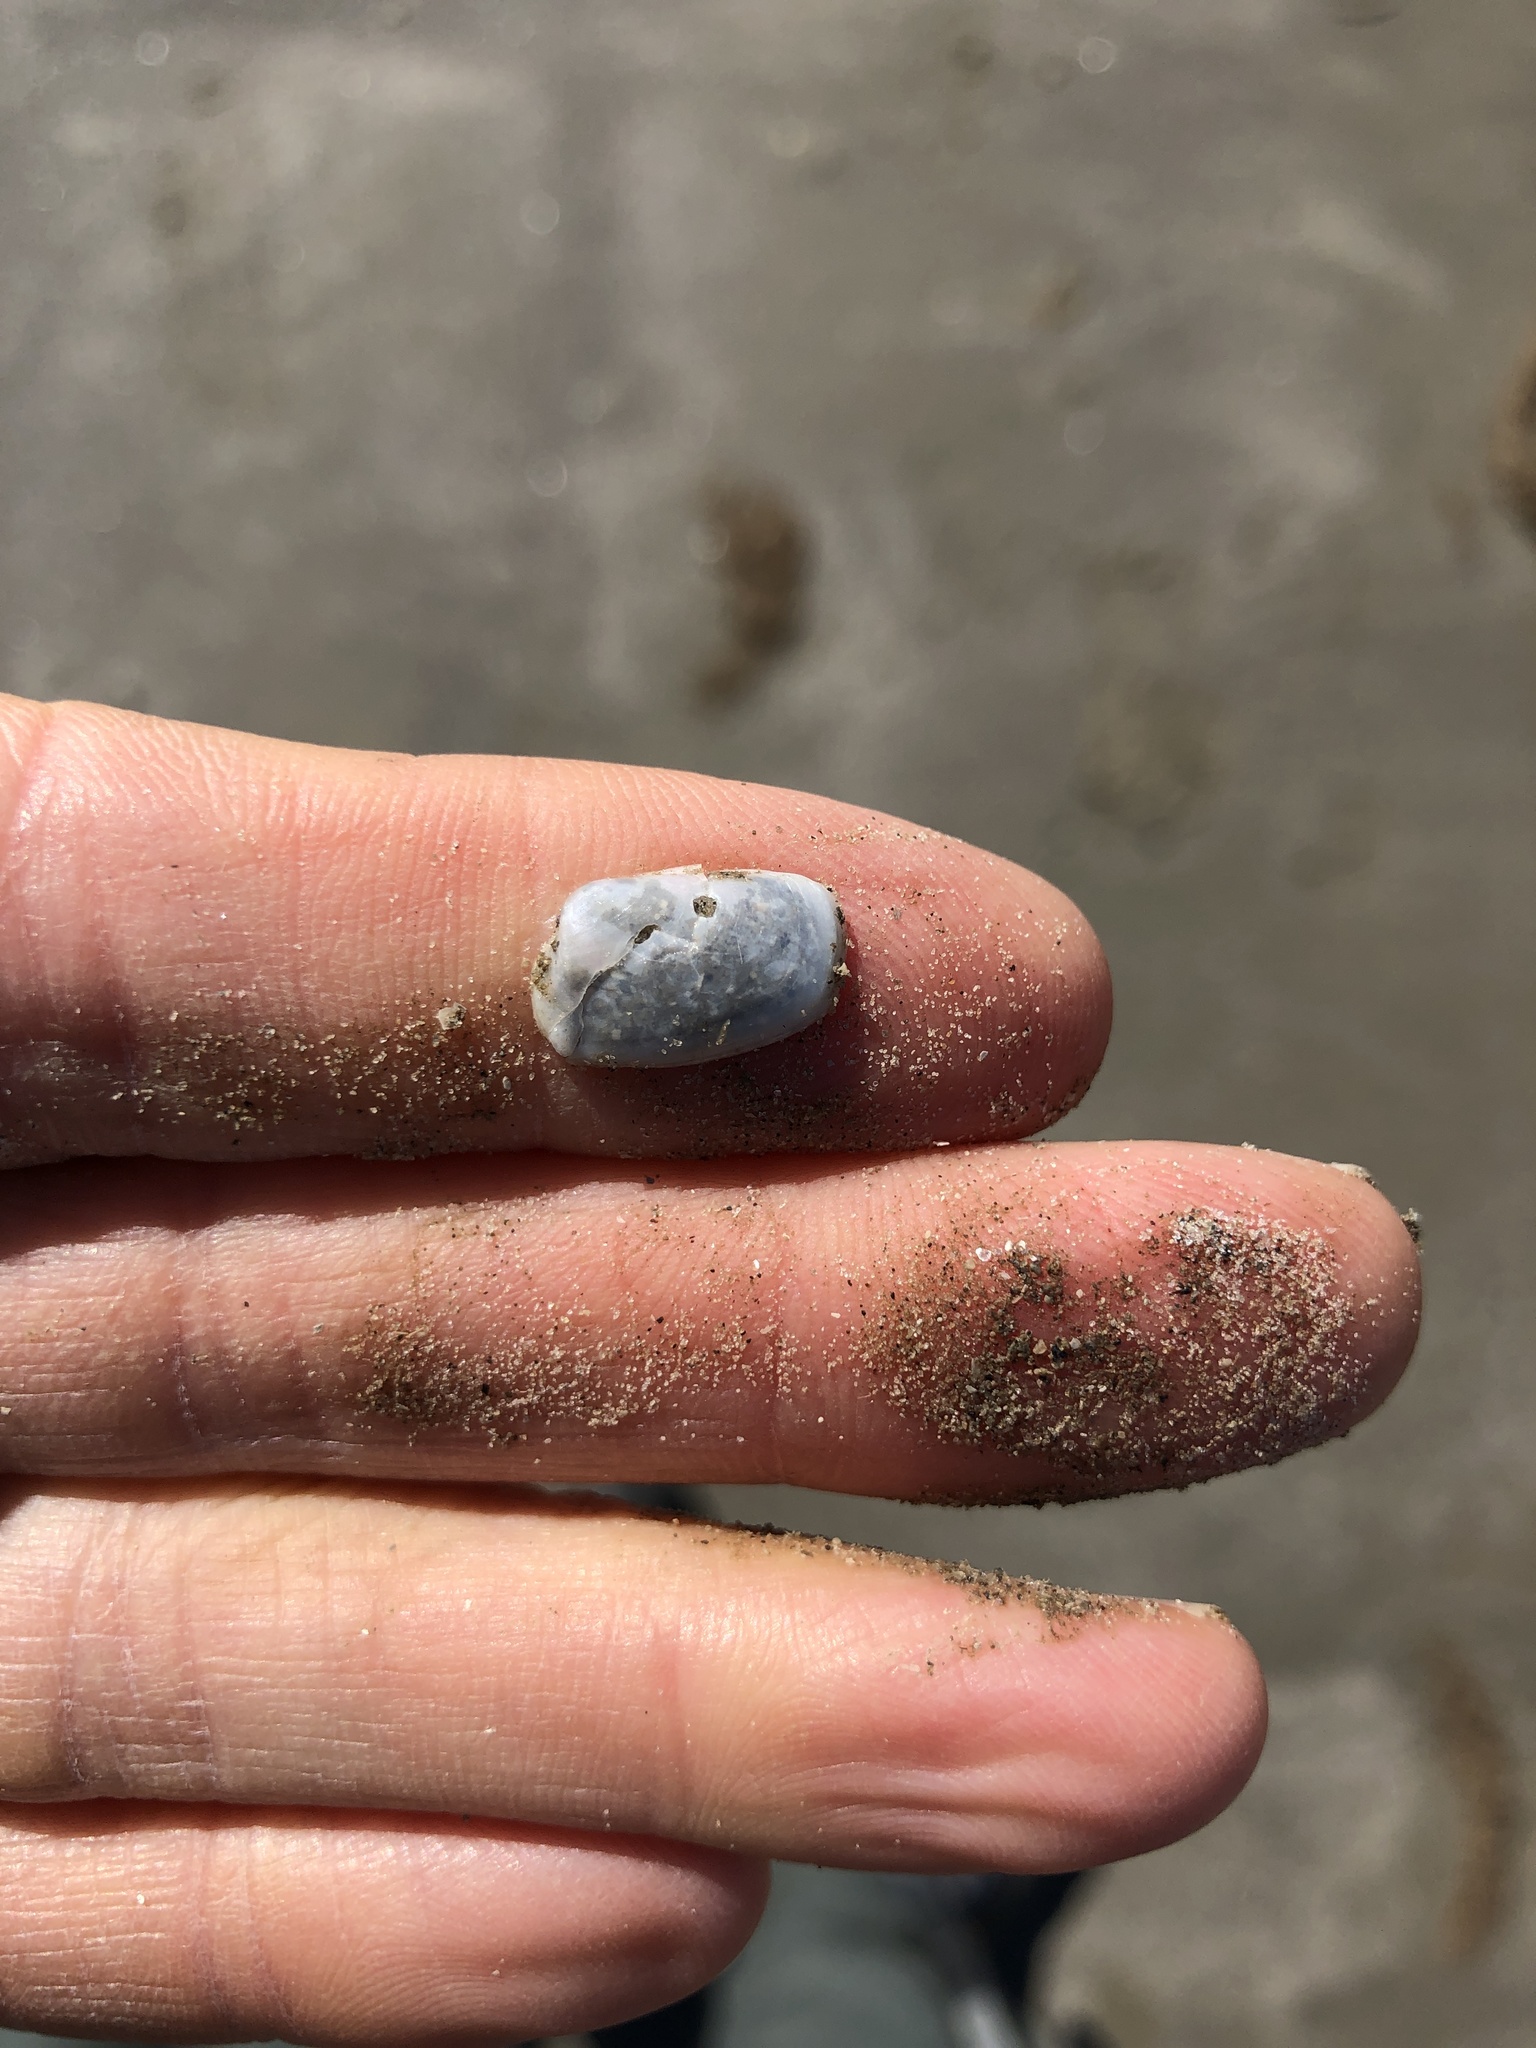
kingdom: Animalia
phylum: Mollusca
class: Bivalvia
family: Periplomatidae
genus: Periploma
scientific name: Periploma inequale
